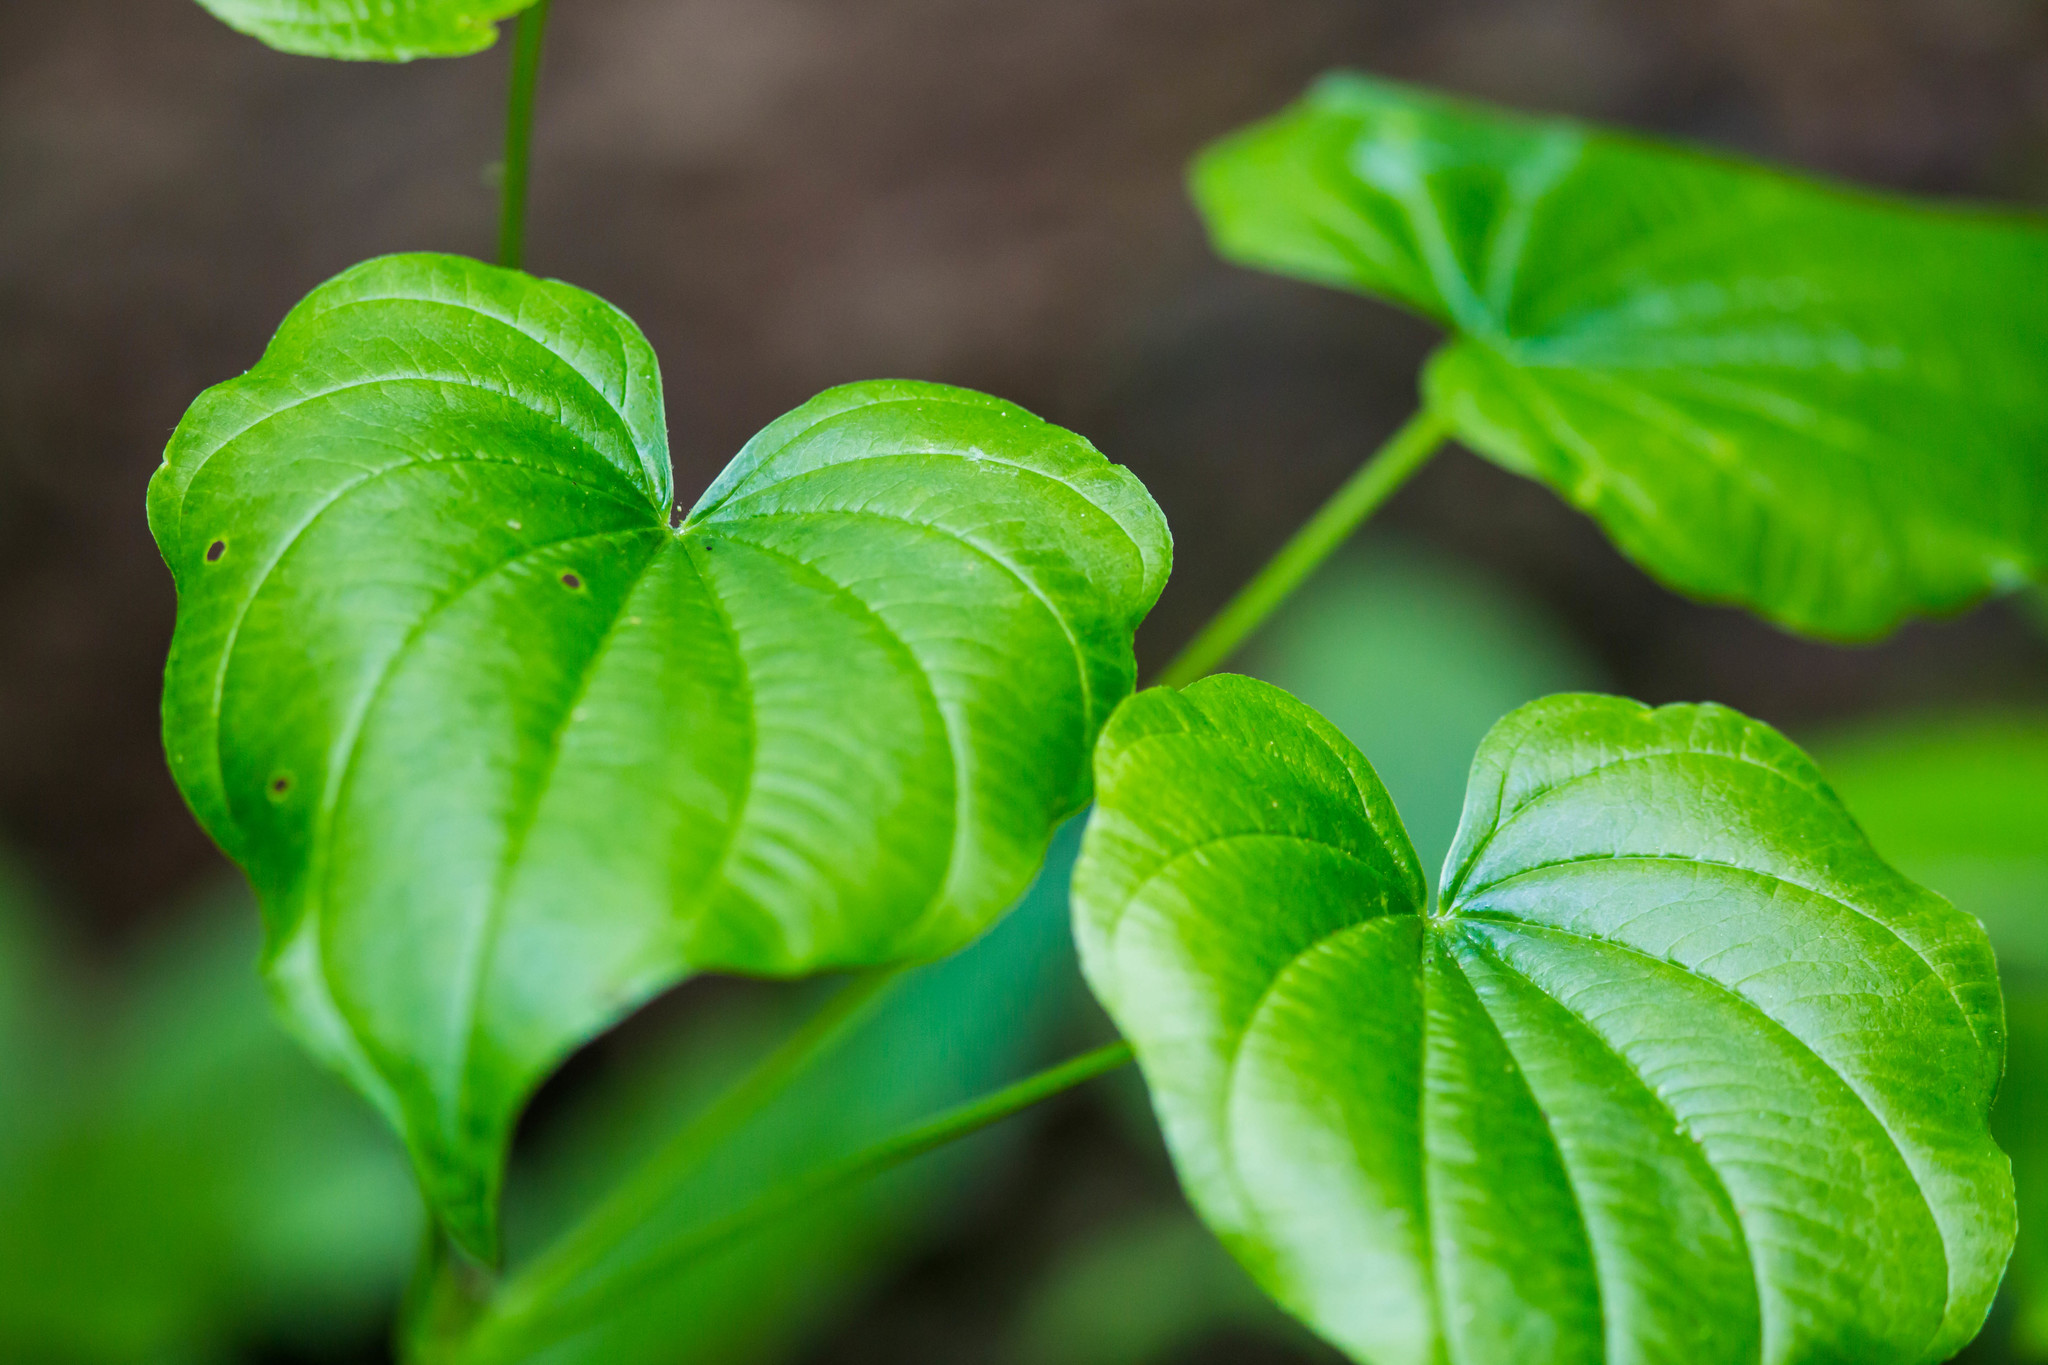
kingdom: Plantae
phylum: Tracheophyta
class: Liliopsida
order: Dioscoreales
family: Dioscoreaceae
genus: Dioscorea
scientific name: Dioscorea quaternata
